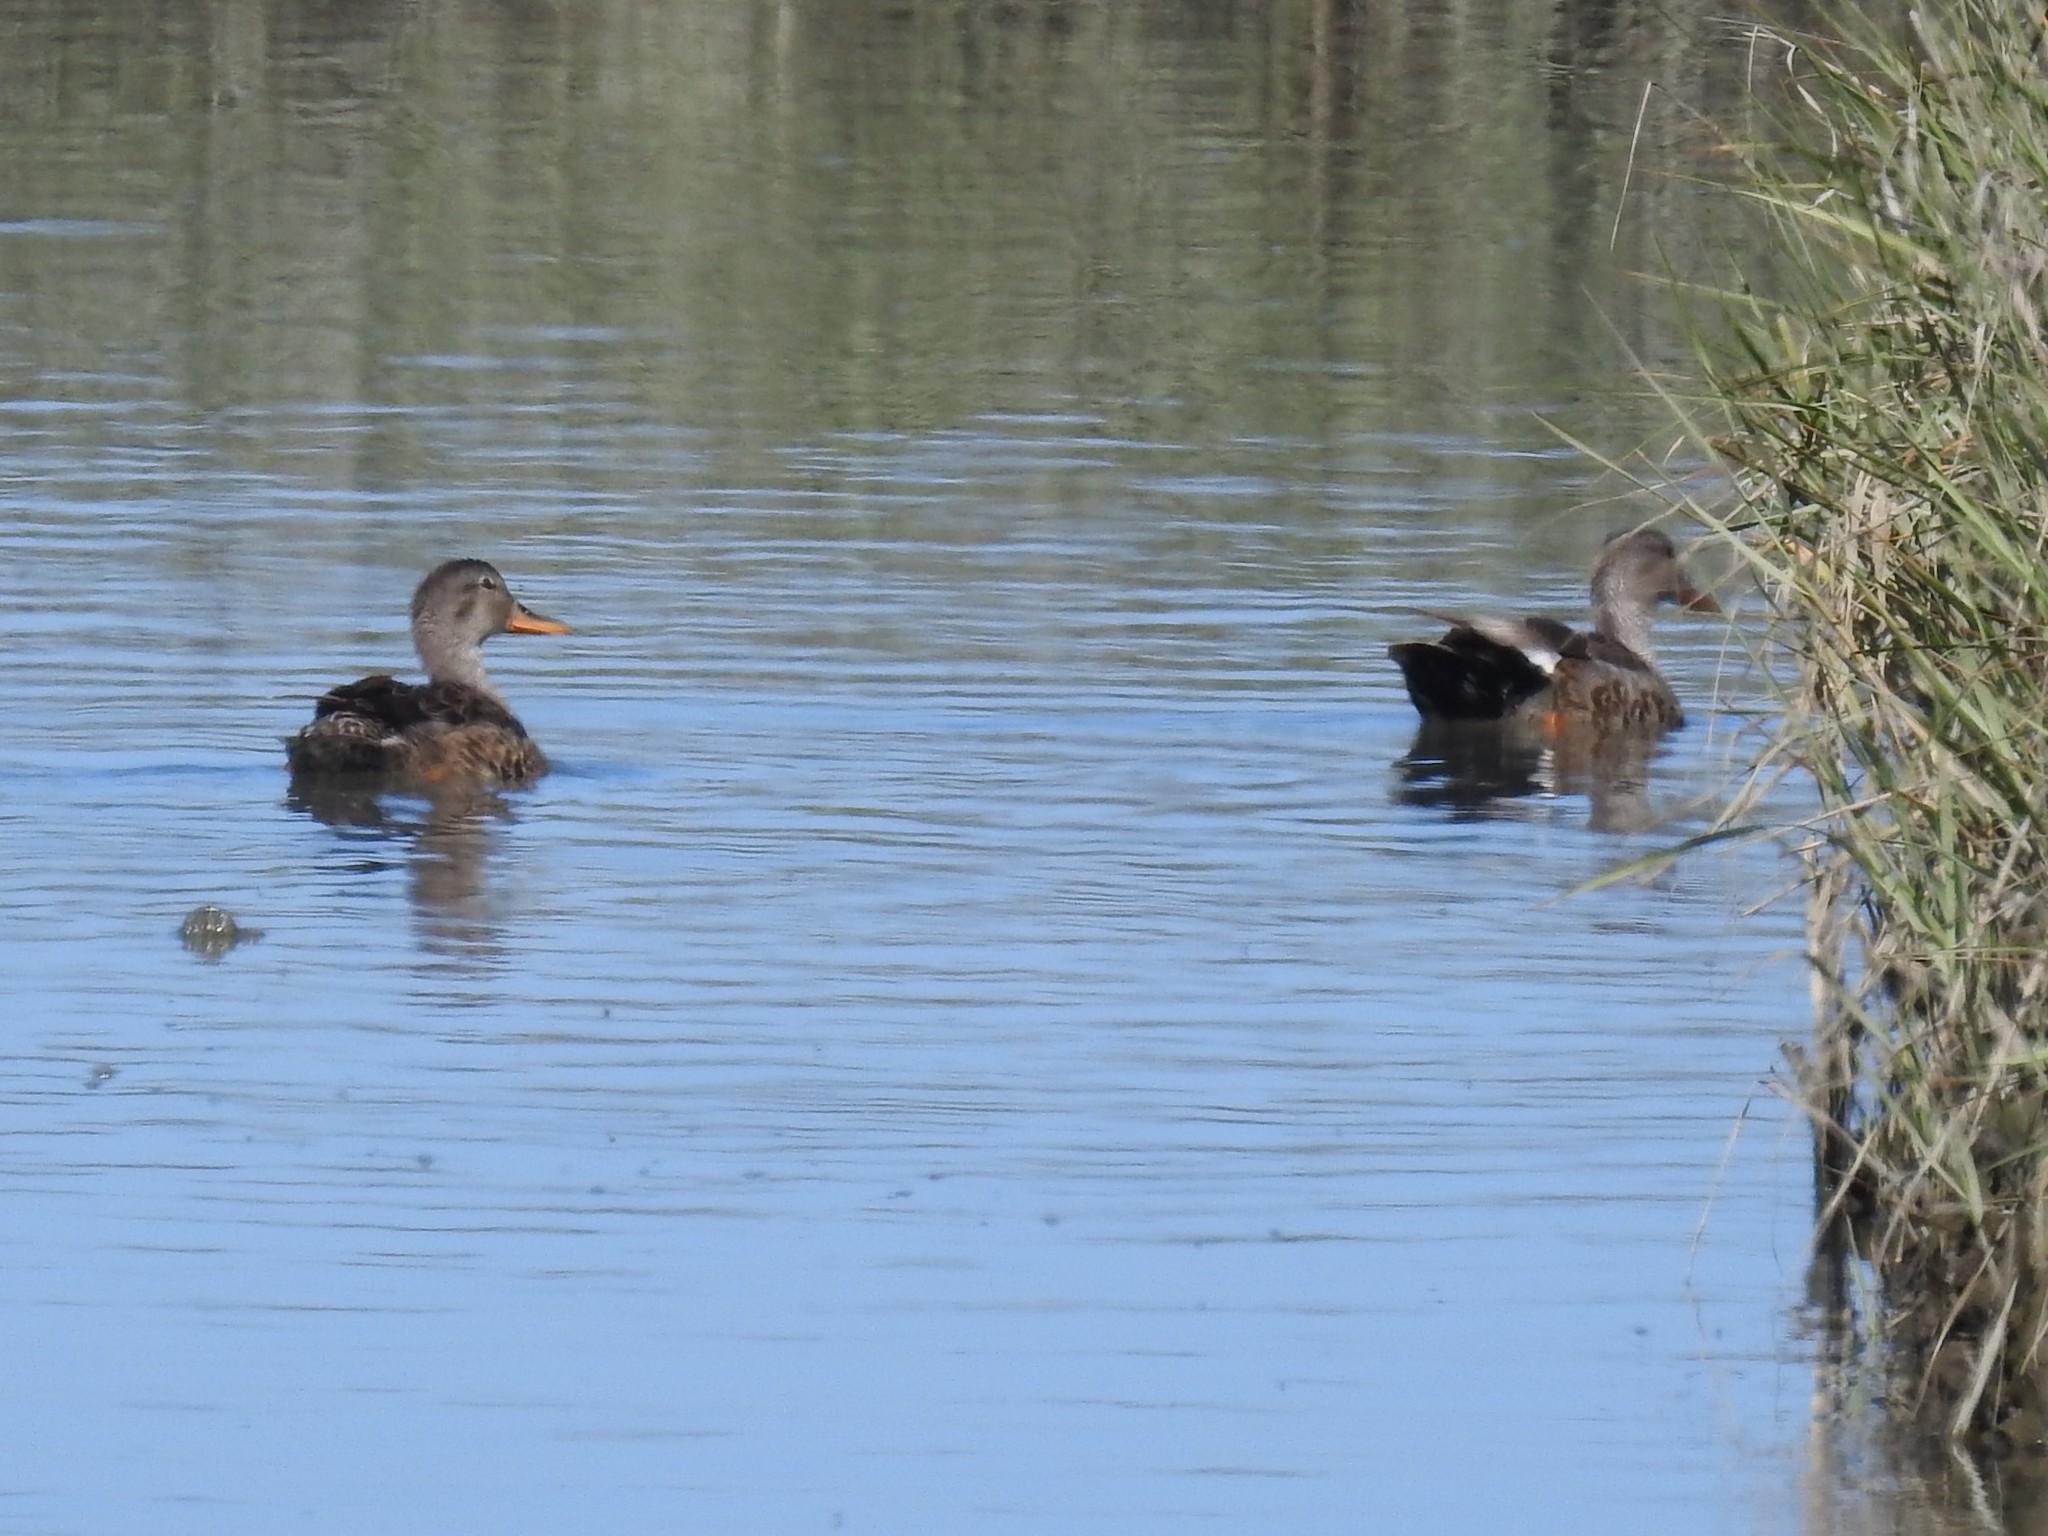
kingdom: Animalia
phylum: Chordata
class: Aves
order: Anseriformes
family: Anatidae
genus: Mareca
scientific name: Mareca strepera
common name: Gadwall
